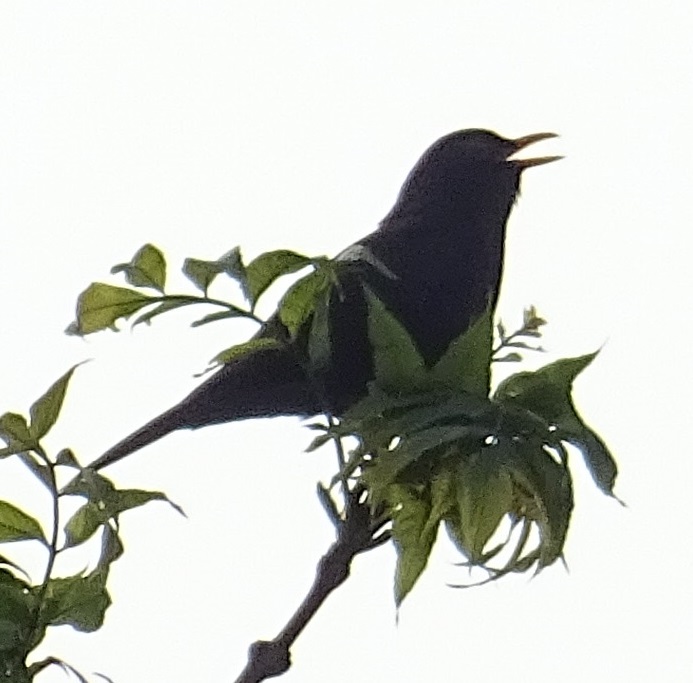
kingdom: Animalia
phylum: Chordata
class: Aves
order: Passeriformes
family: Turdidae
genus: Turdus
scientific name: Turdus merula
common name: Common blackbird
